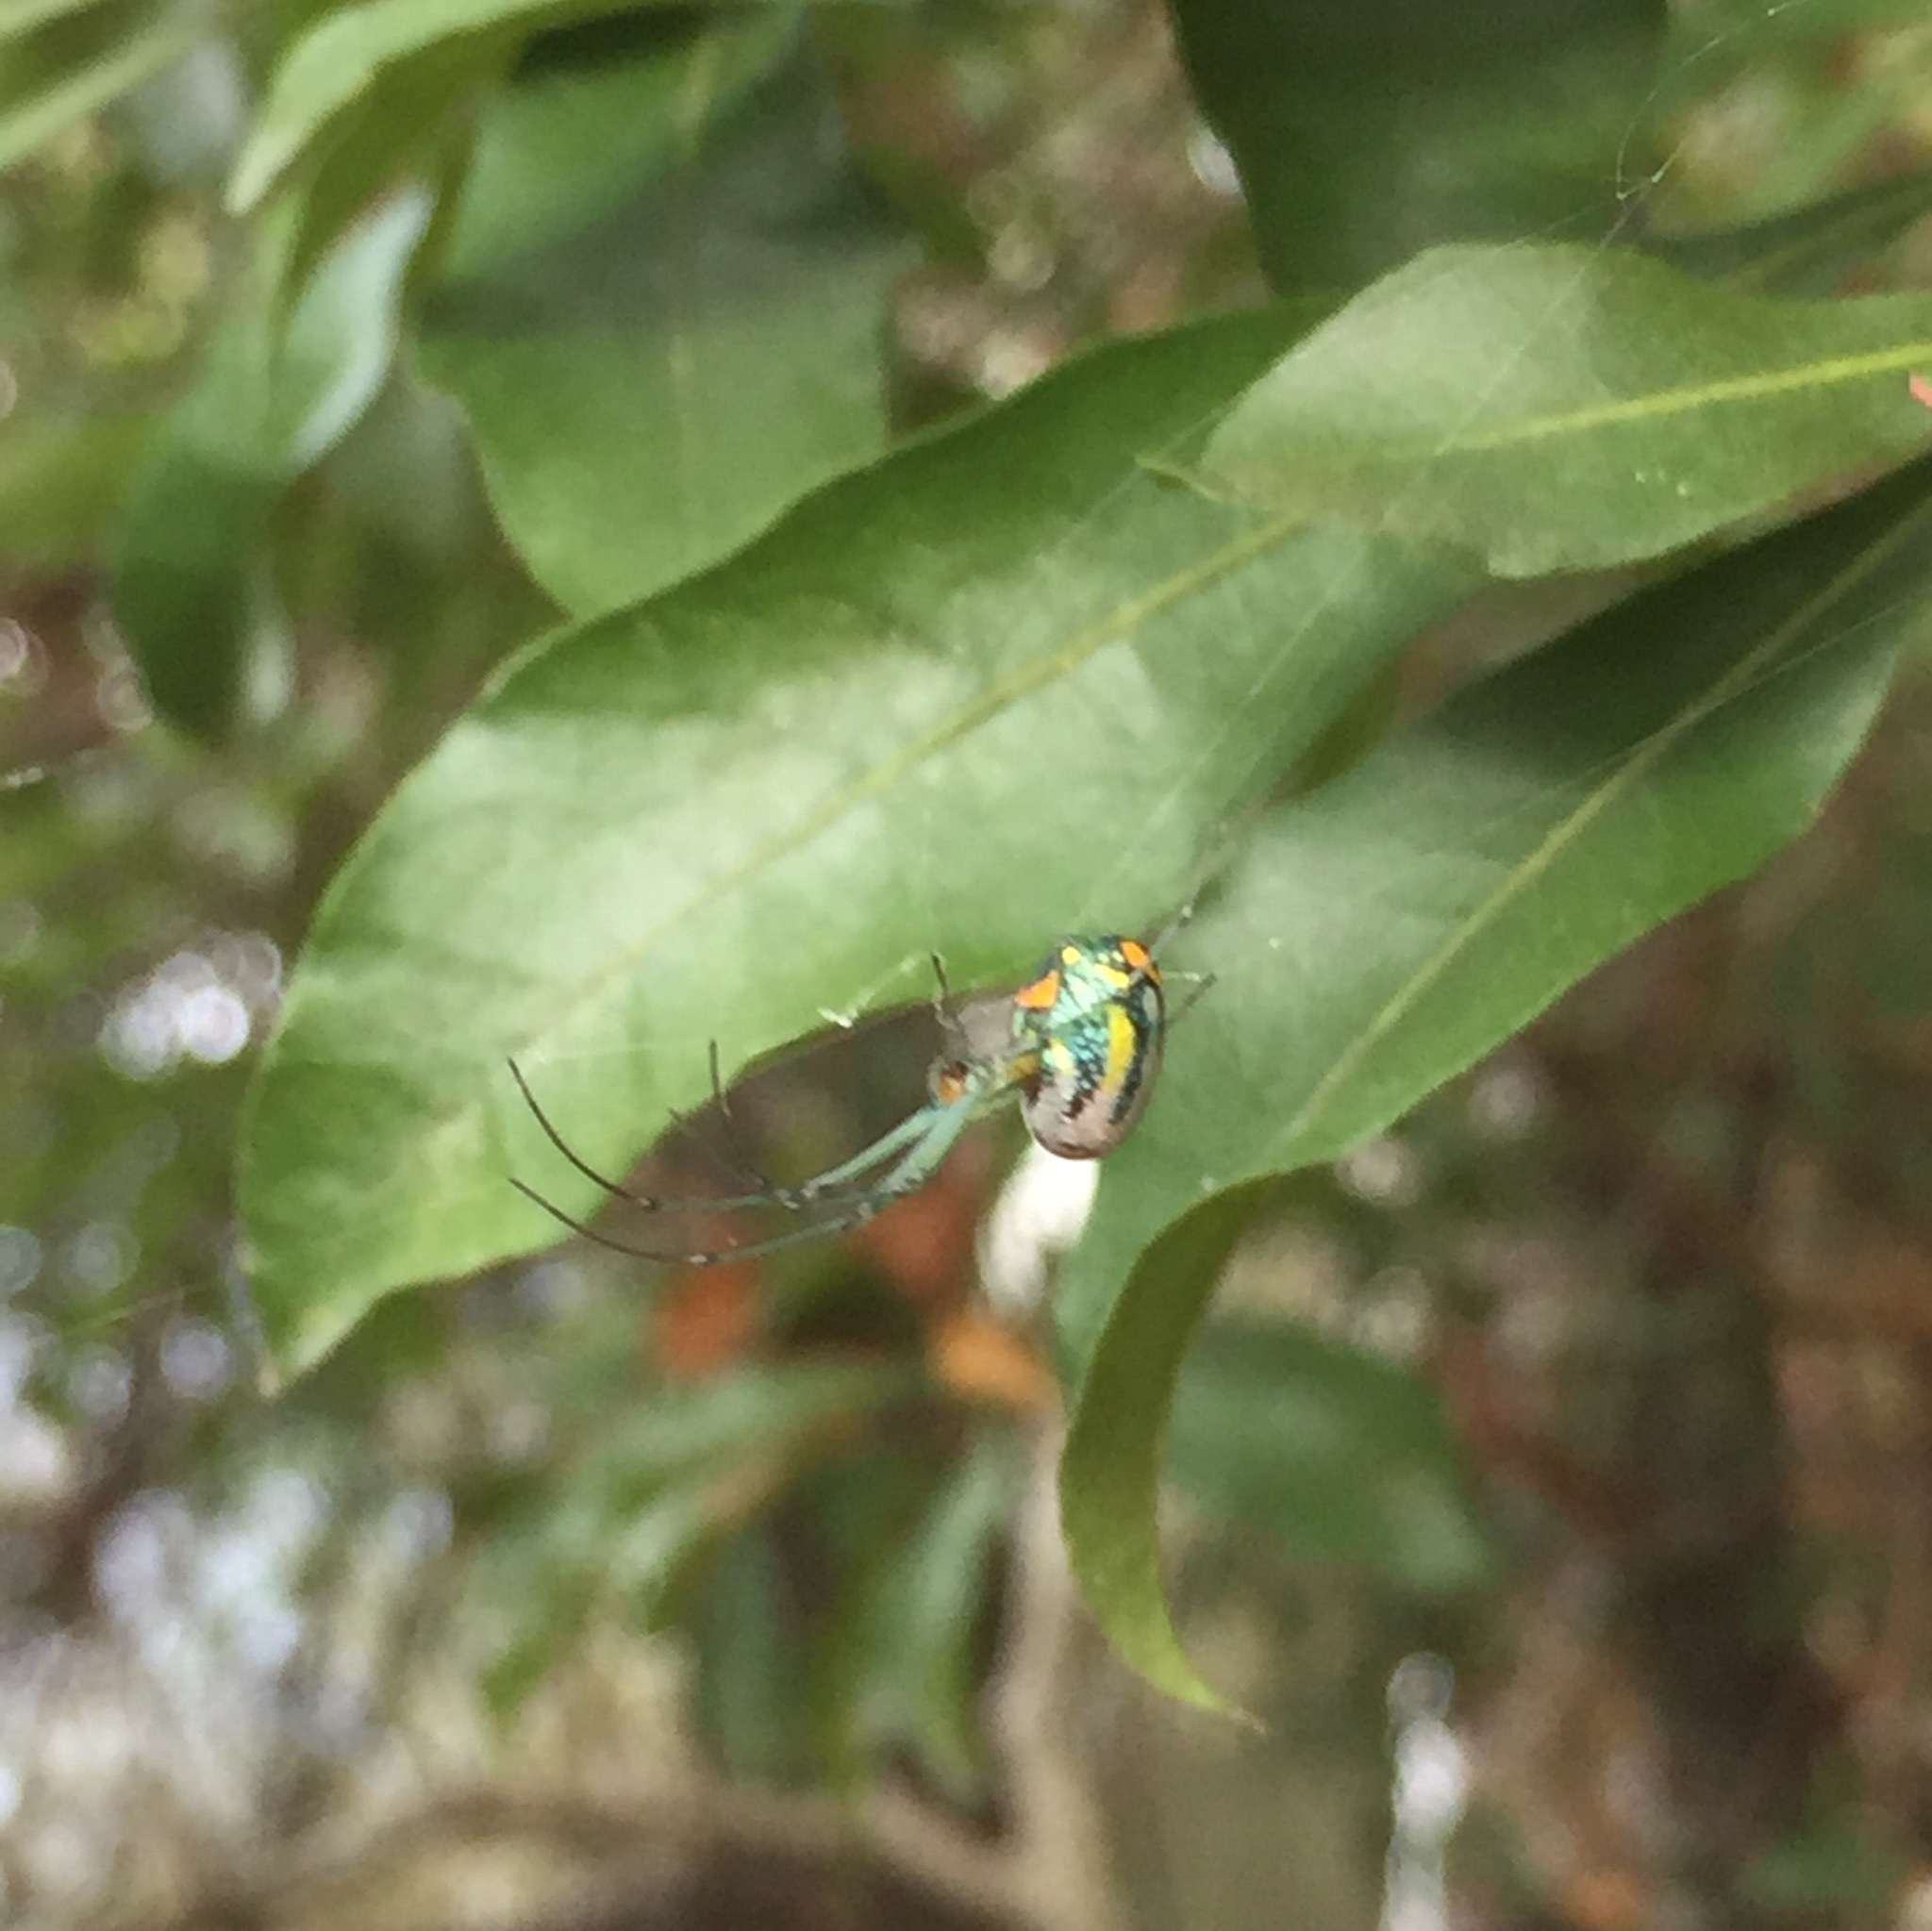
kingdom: Animalia
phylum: Arthropoda
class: Arachnida
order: Araneae
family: Tetragnathidae
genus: Leucauge
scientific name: Leucauge argyrobapta
